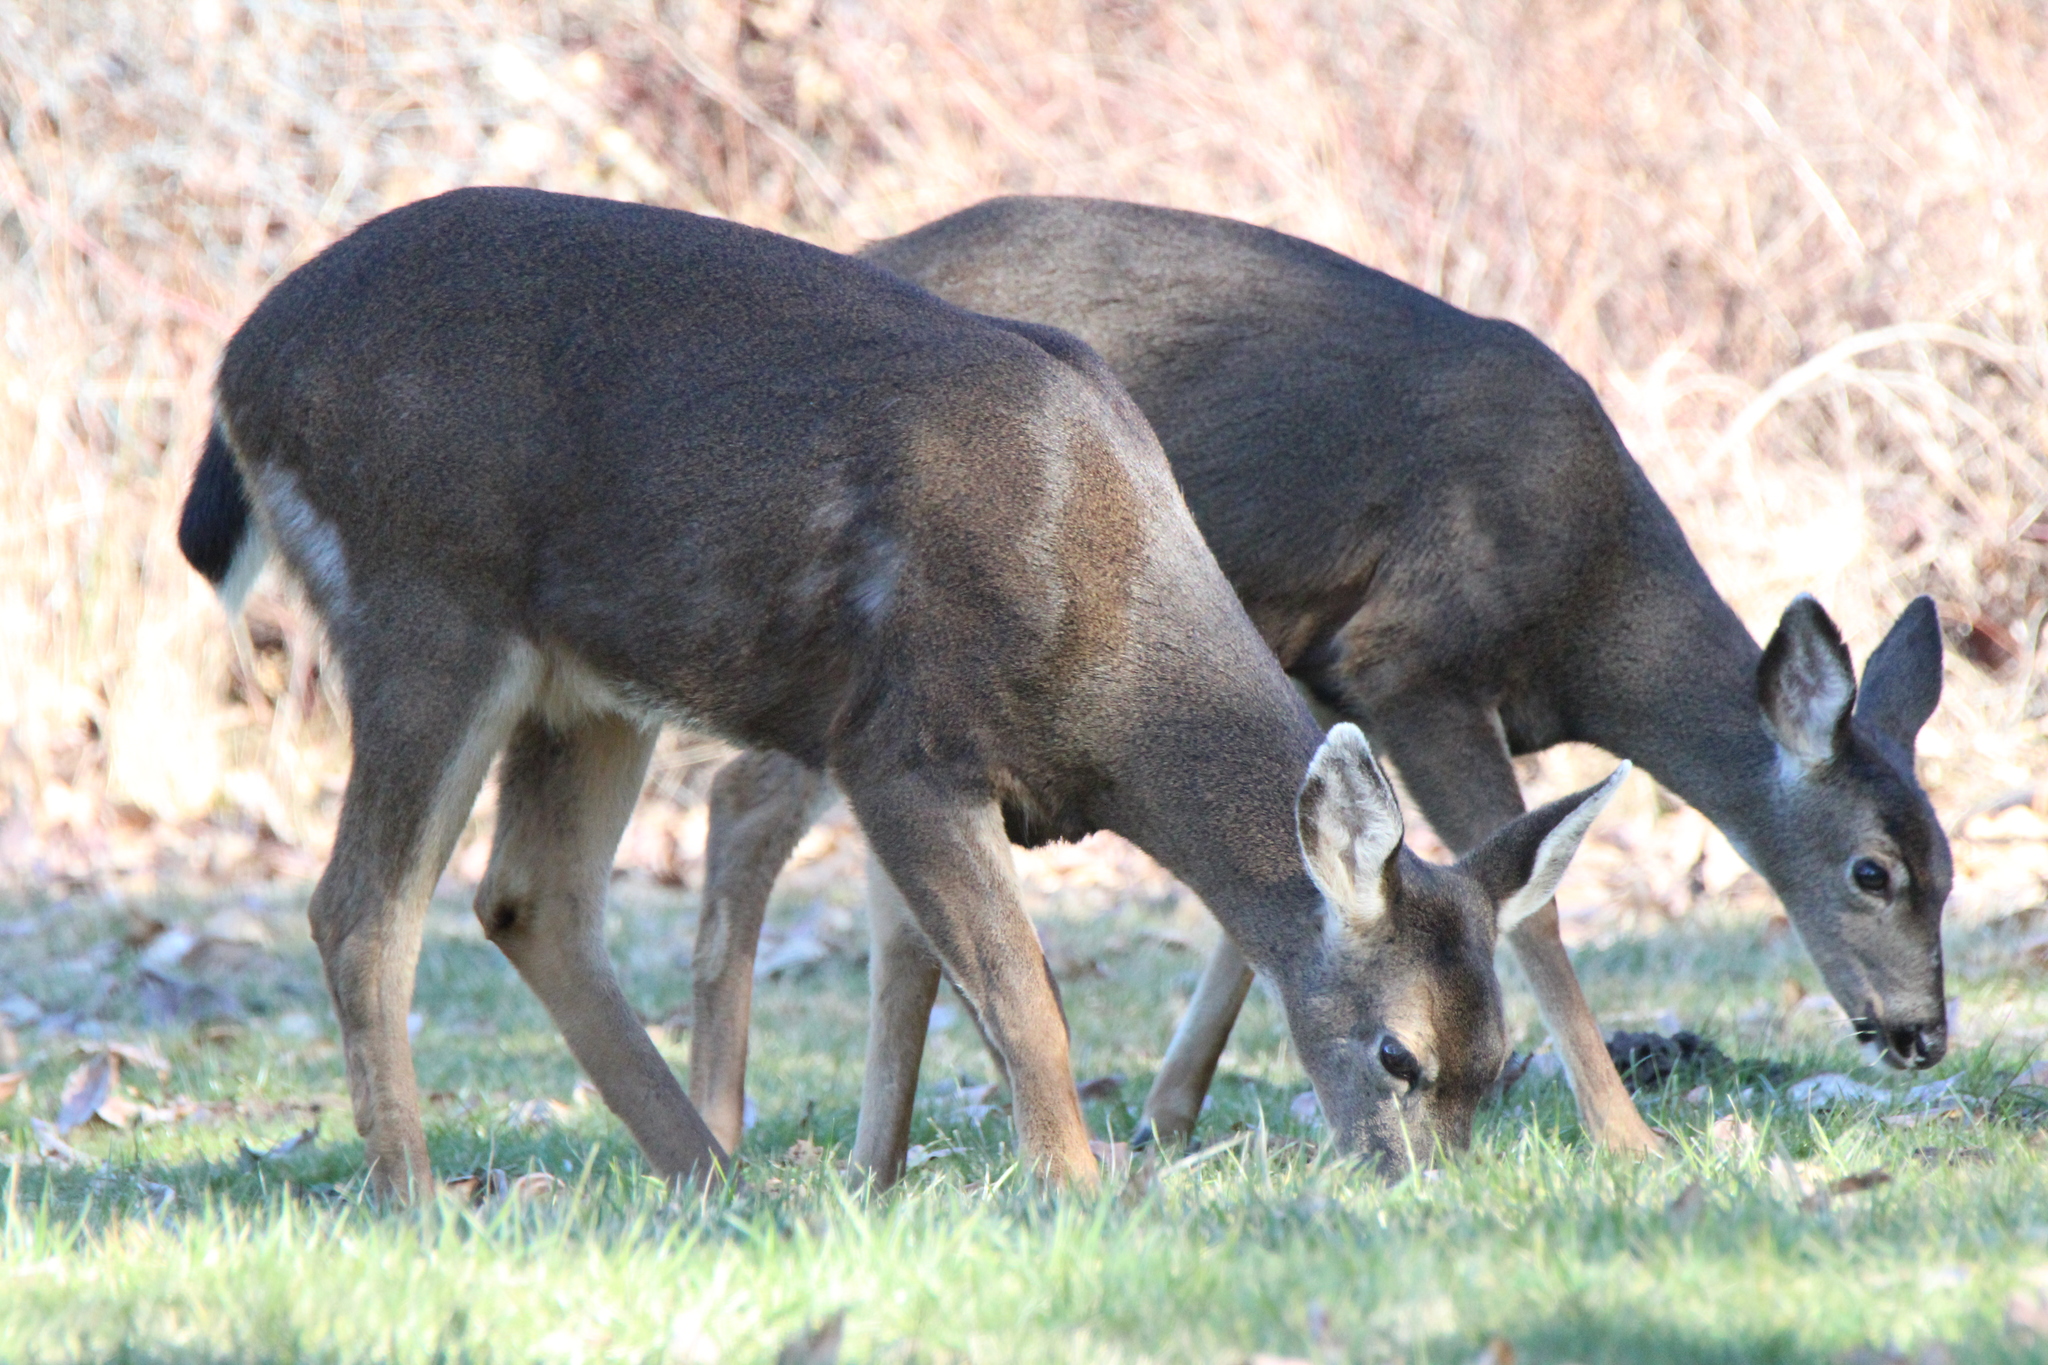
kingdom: Animalia
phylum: Chordata
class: Mammalia
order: Artiodactyla
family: Cervidae
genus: Odocoileus
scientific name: Odocoileus hemionus
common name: Mule deer
